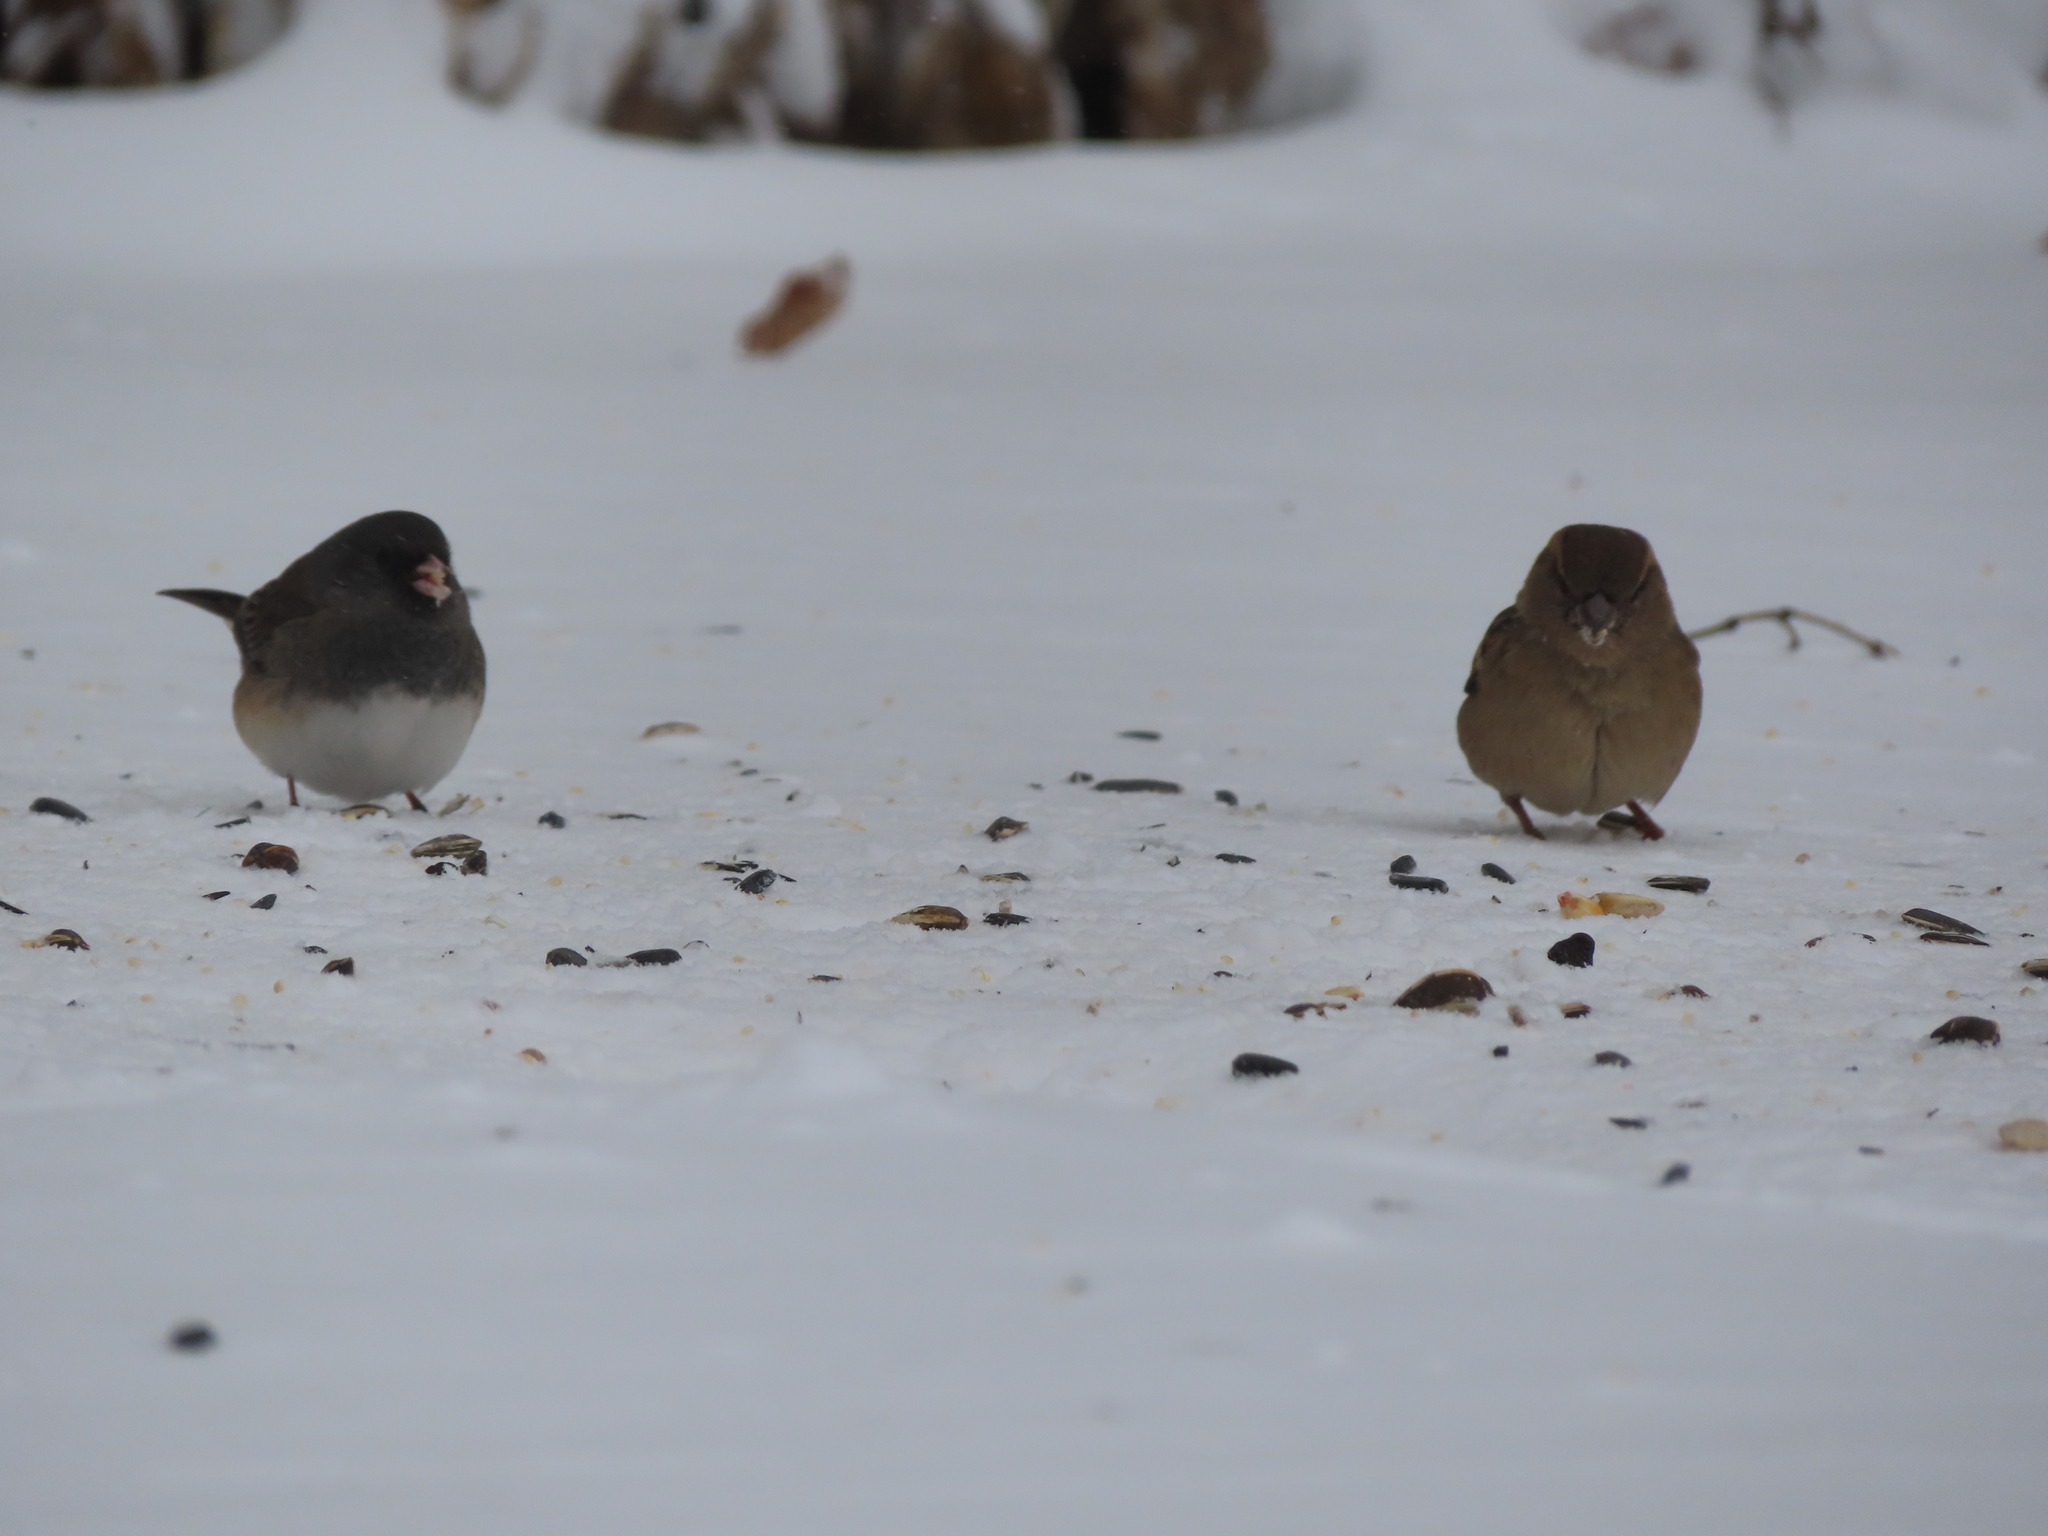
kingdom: Animalia
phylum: Chordata
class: Aves
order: Passeriformes
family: Passeridae
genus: Passer
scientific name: Passer domesticus
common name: House sparrow
